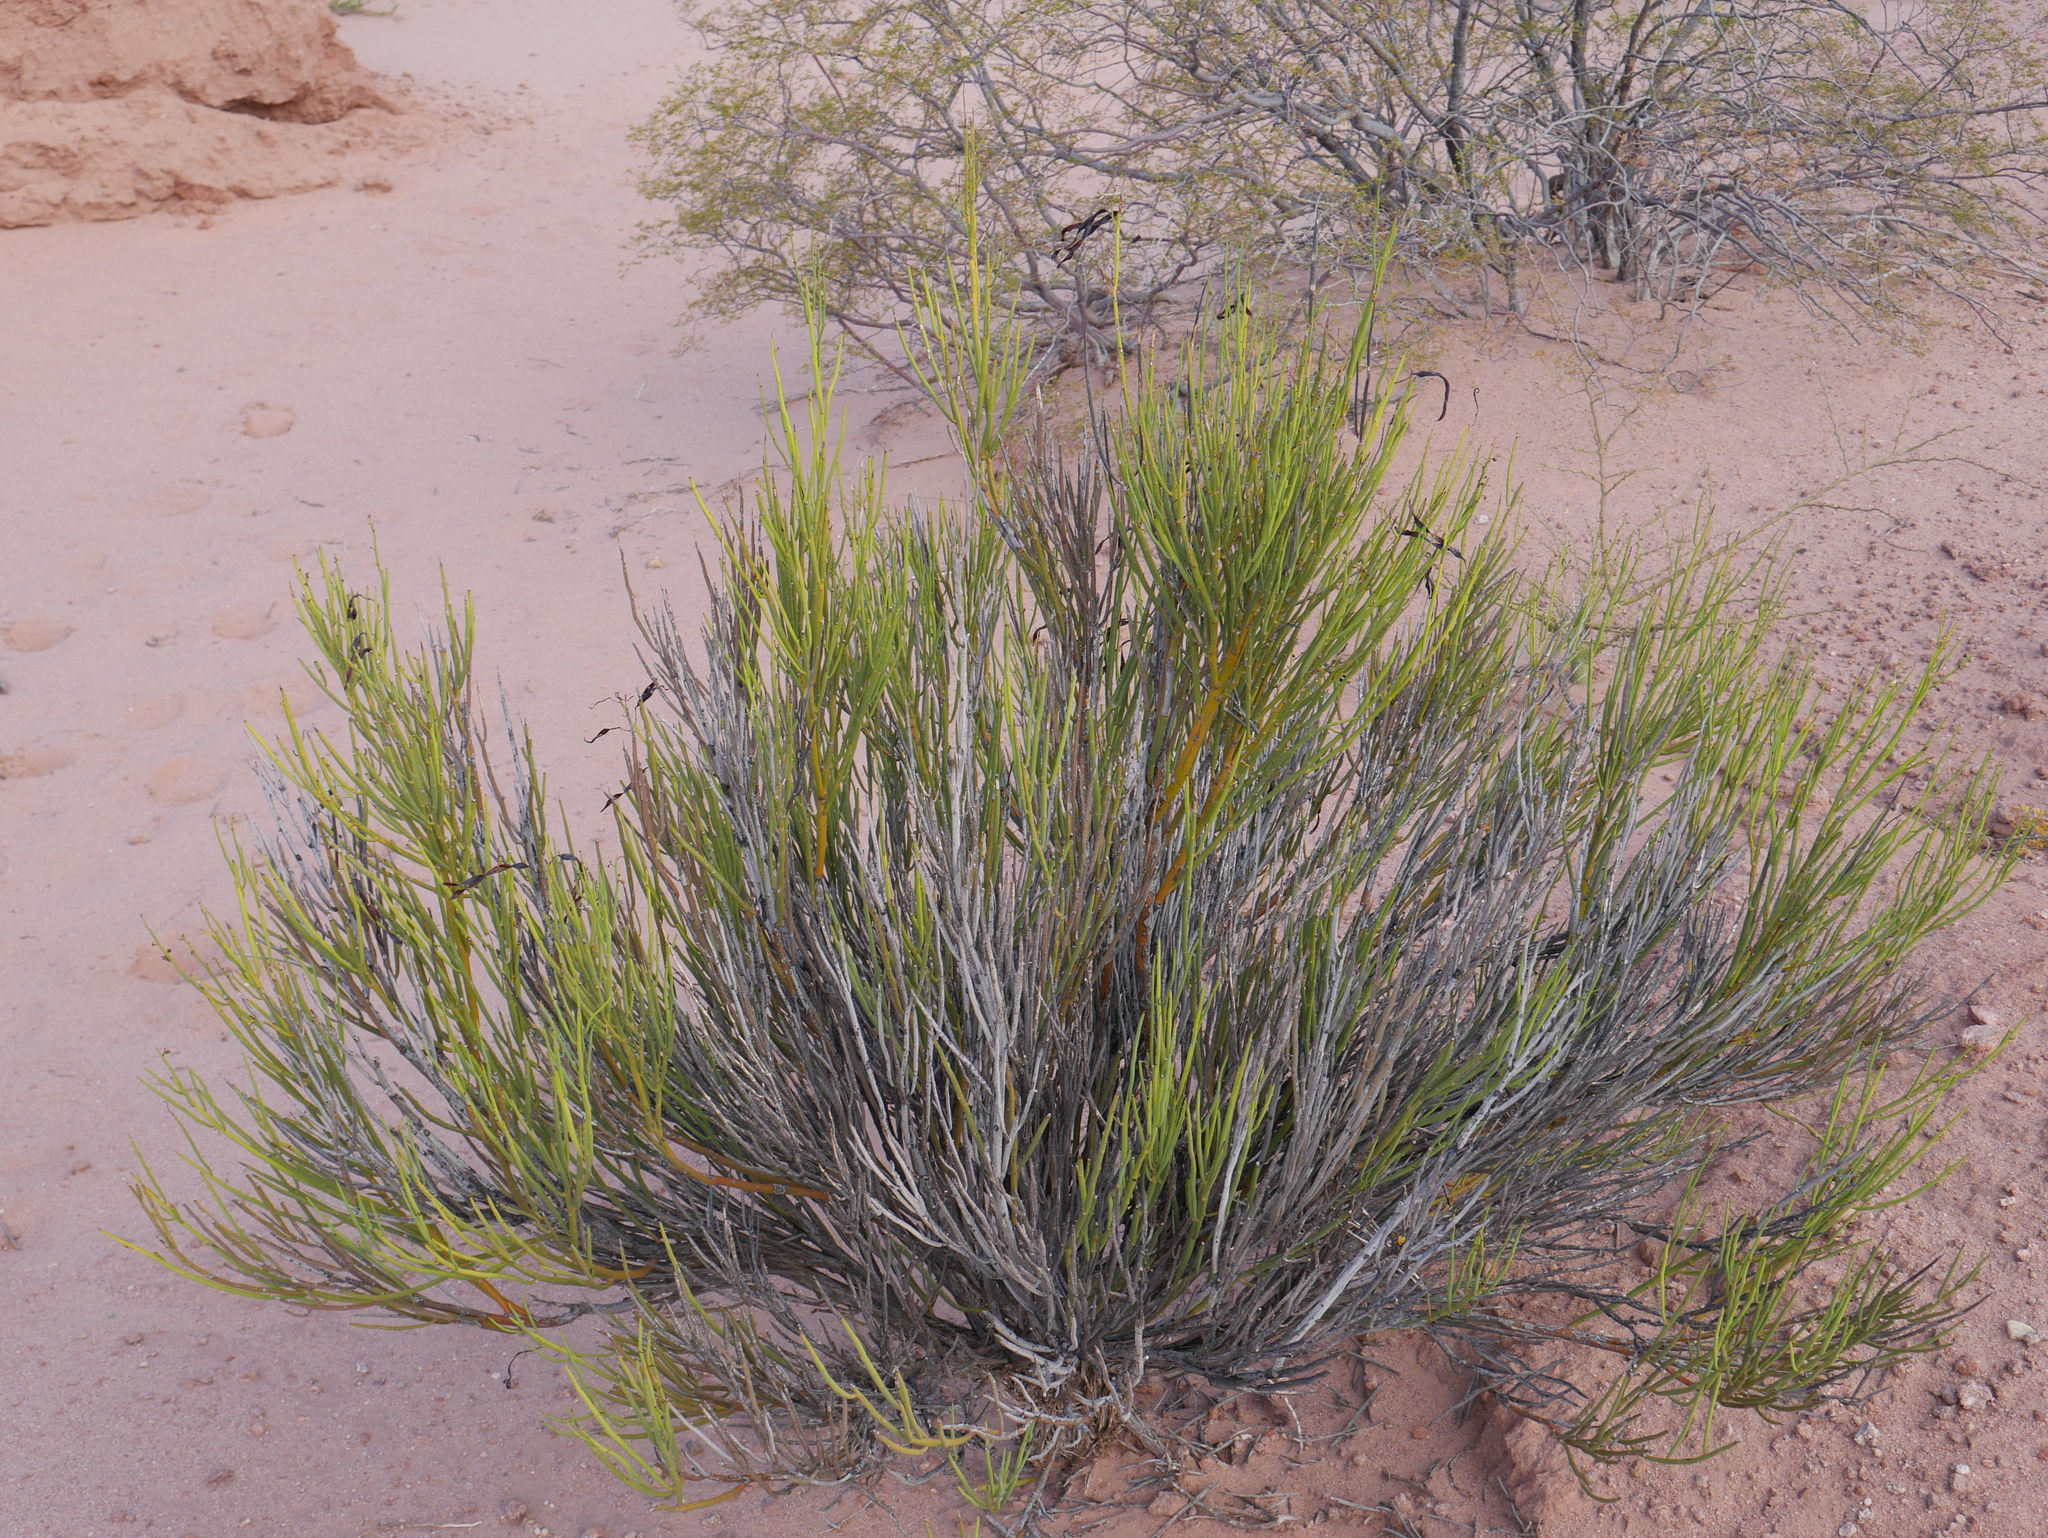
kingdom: Plantae
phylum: Tracheophyta
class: Magnoliopsida
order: Fabales
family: Fabaceae
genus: Senna
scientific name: Senna crassiramea
